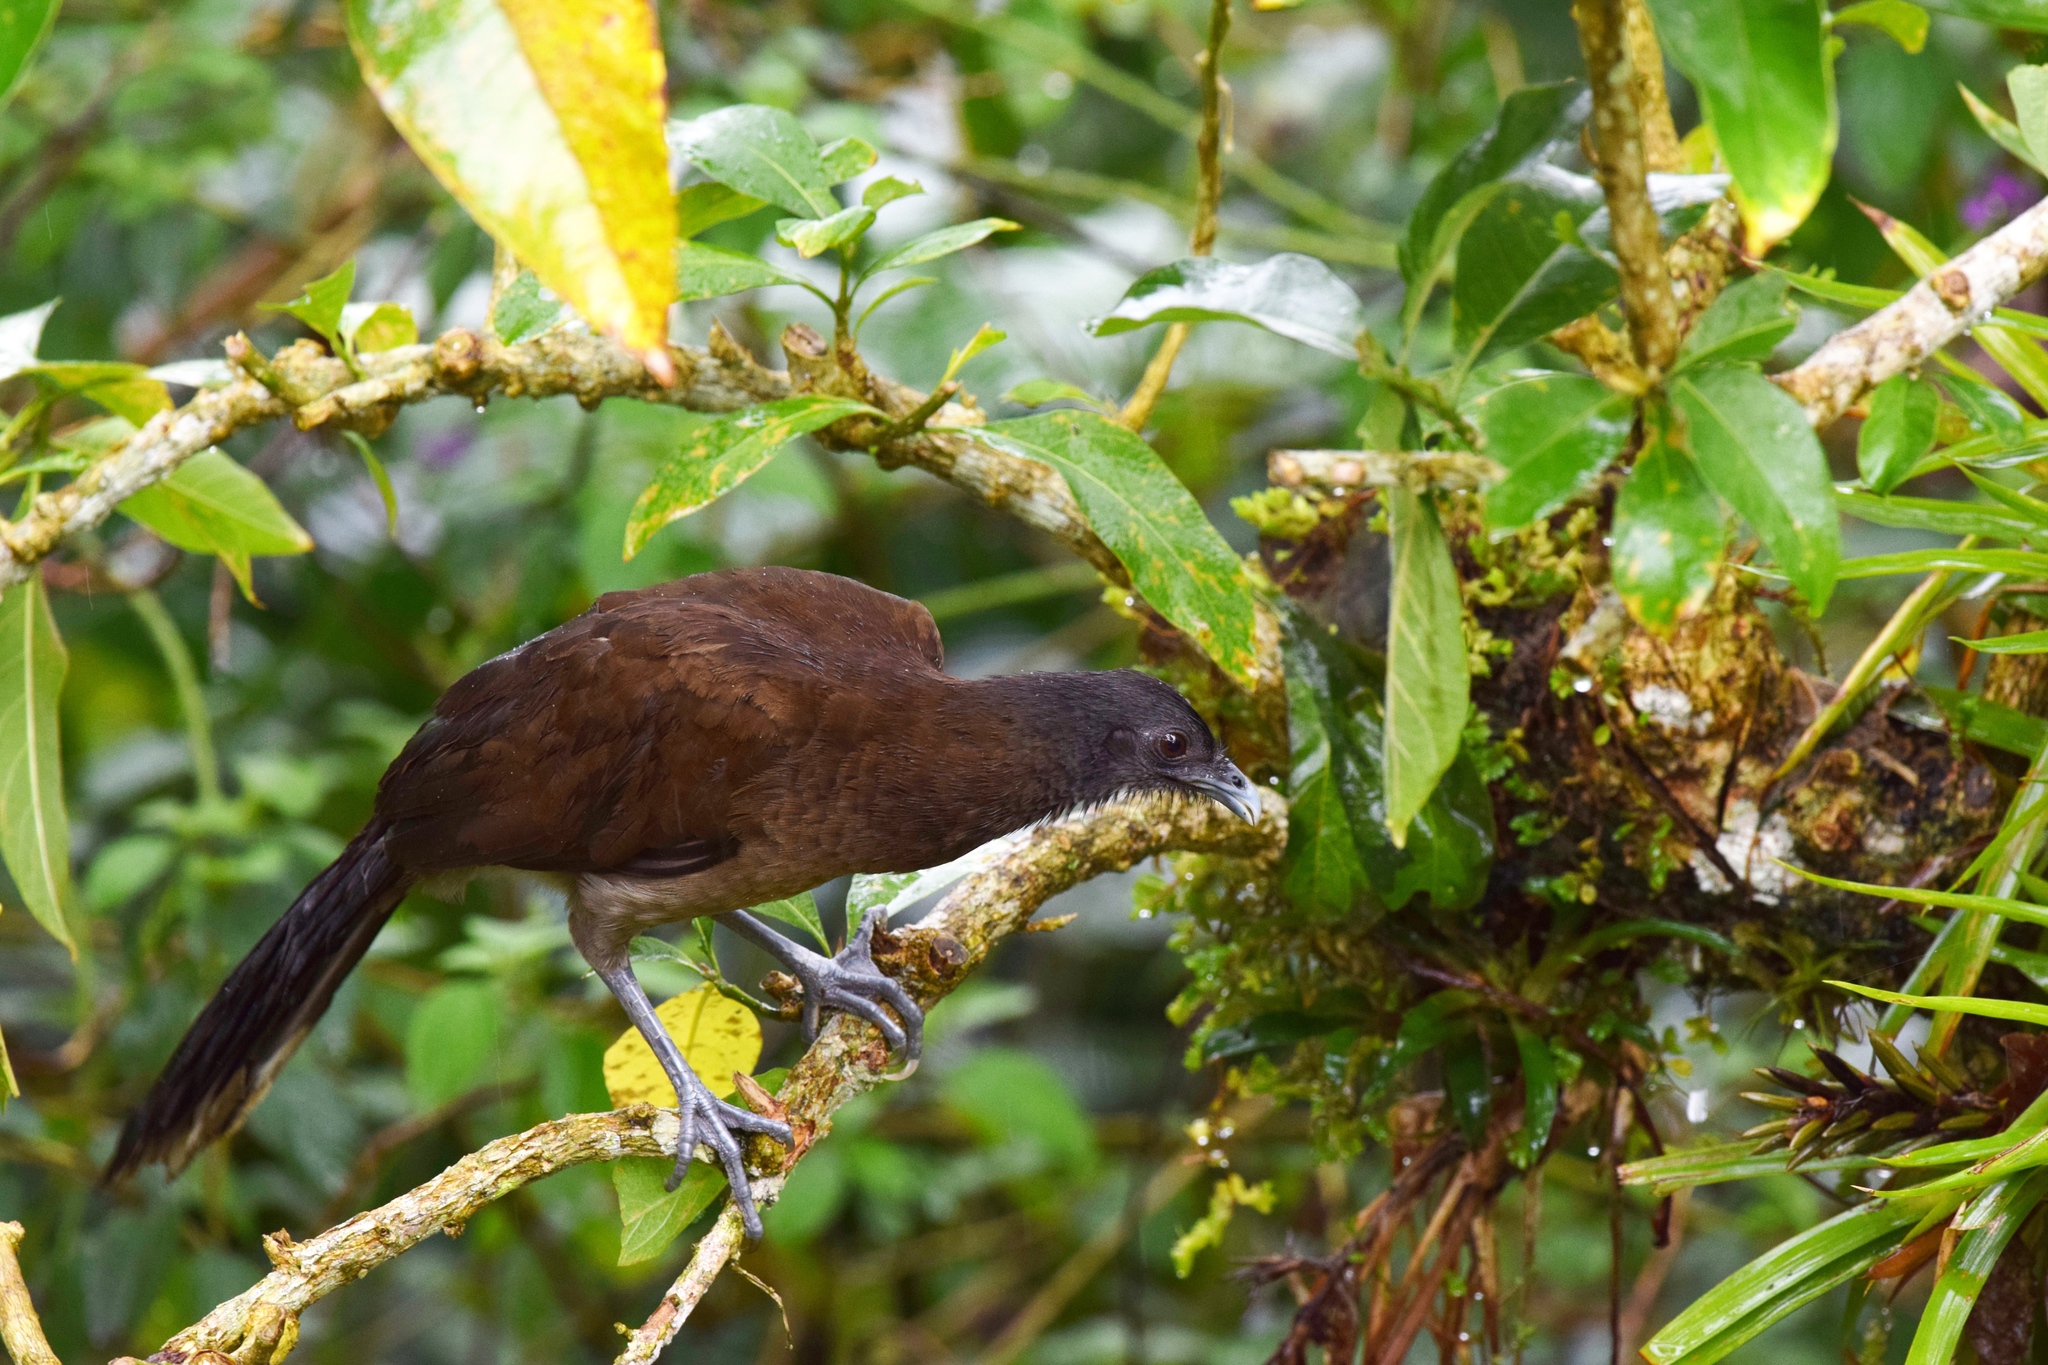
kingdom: Animalia
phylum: Chordata
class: Aves
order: Galliformes
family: Cracidae
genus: Ortalis
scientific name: Ortalis cinereiceps
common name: Grey-headed chachalaca
